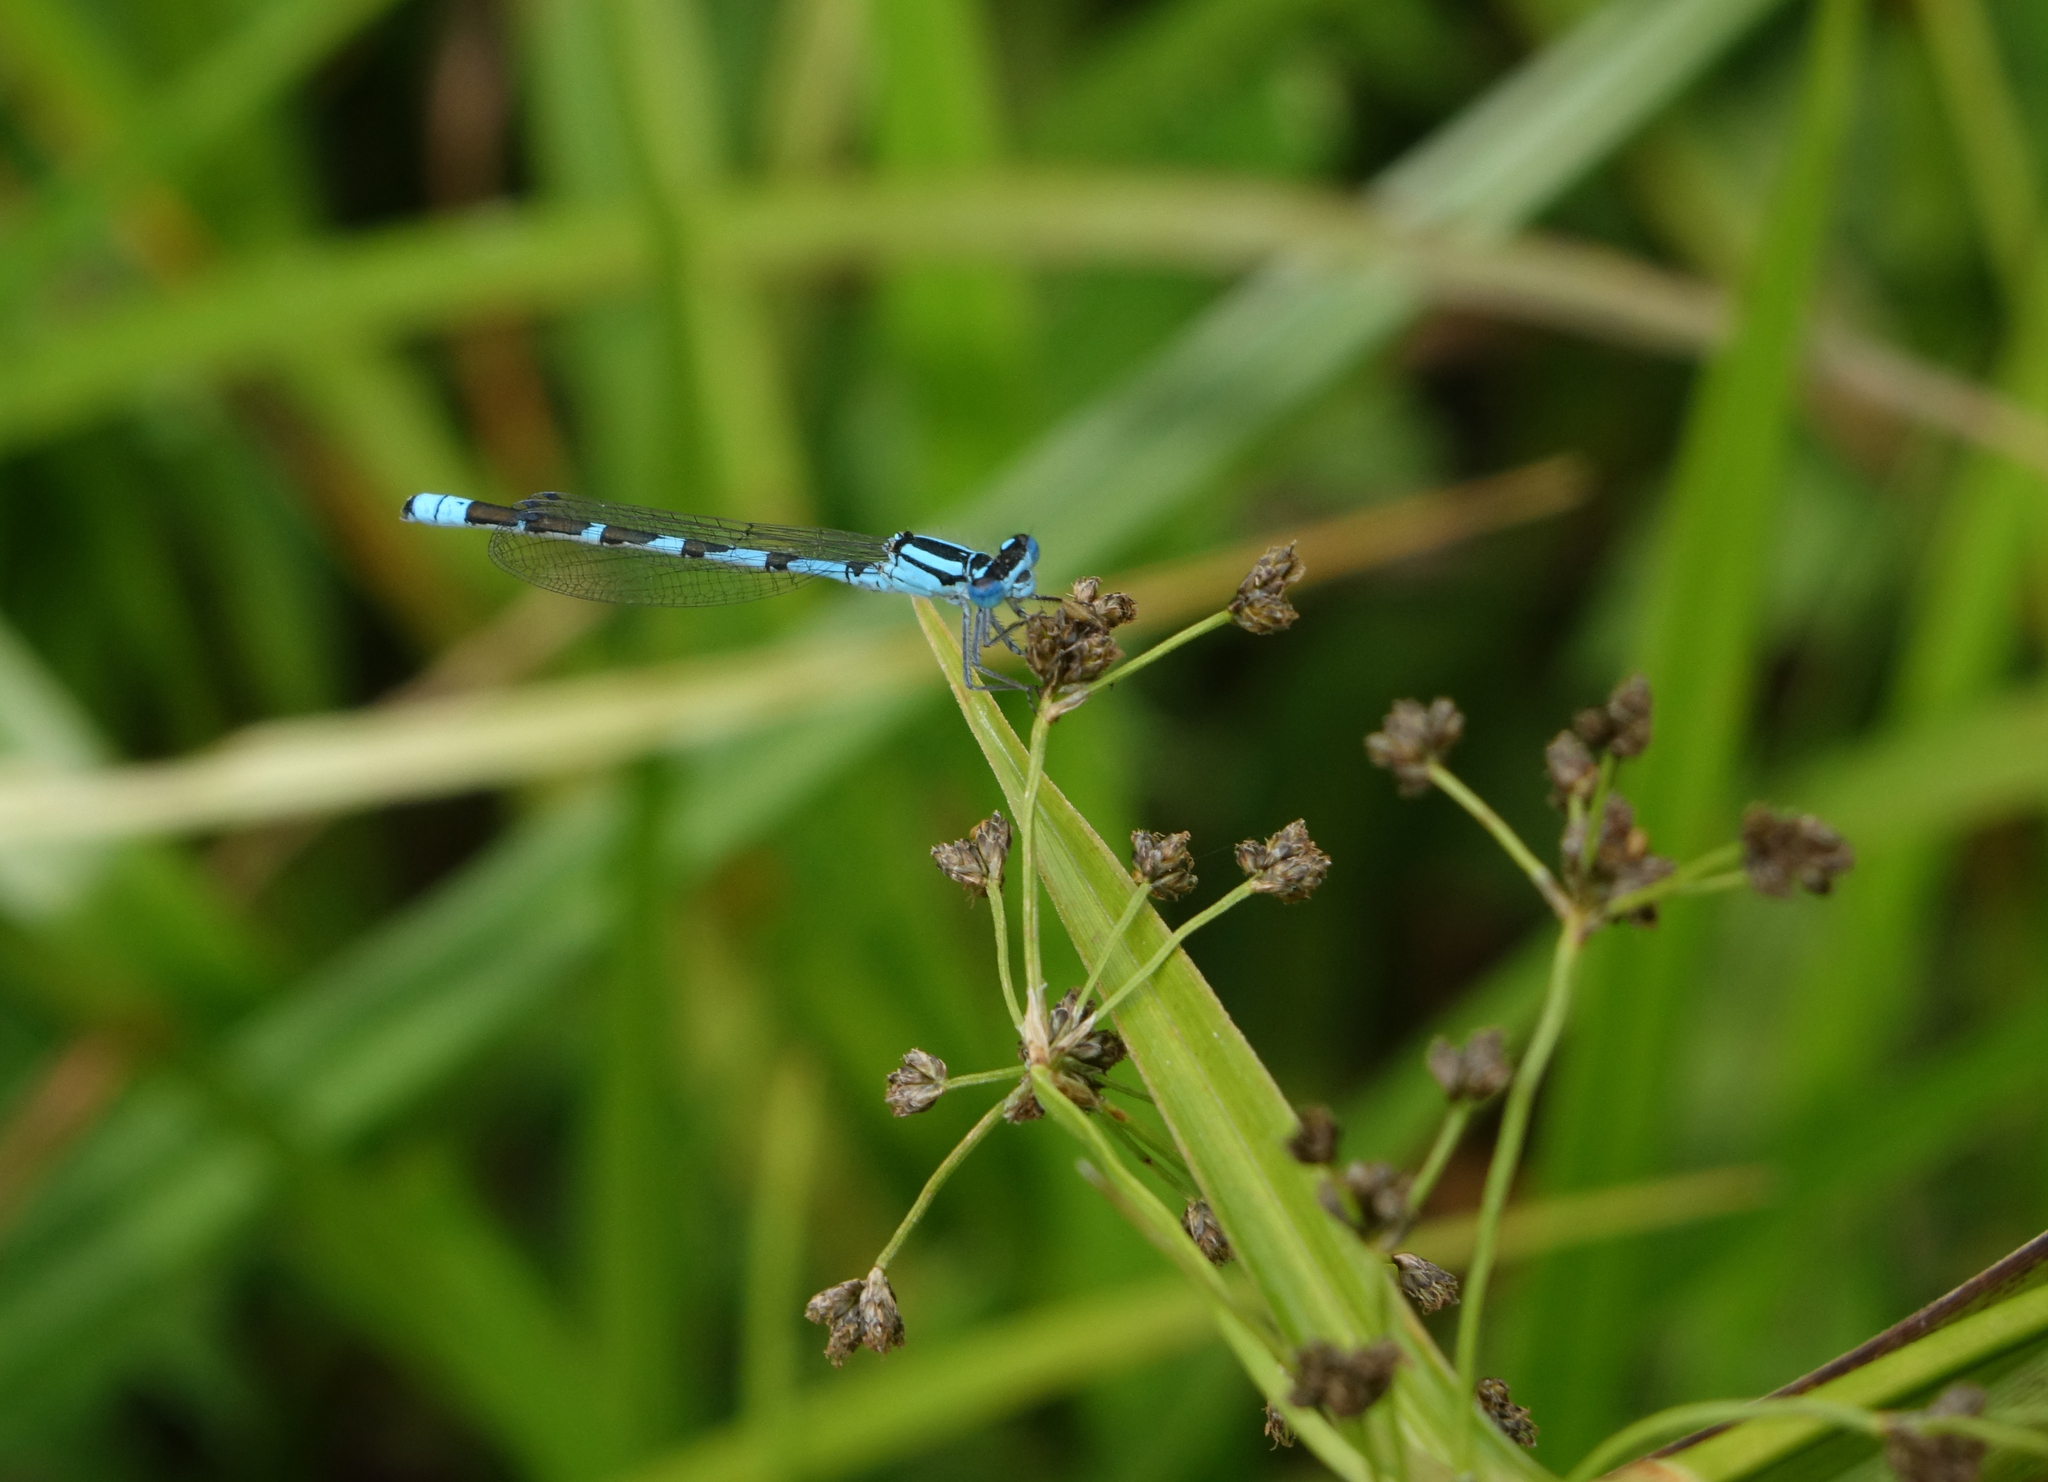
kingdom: Animalia
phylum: Arthropoda
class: Insecta
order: Odonata
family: Coenagrionidae
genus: Enallagma
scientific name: Enallagma cyathigerum
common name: Common blue damselfly
